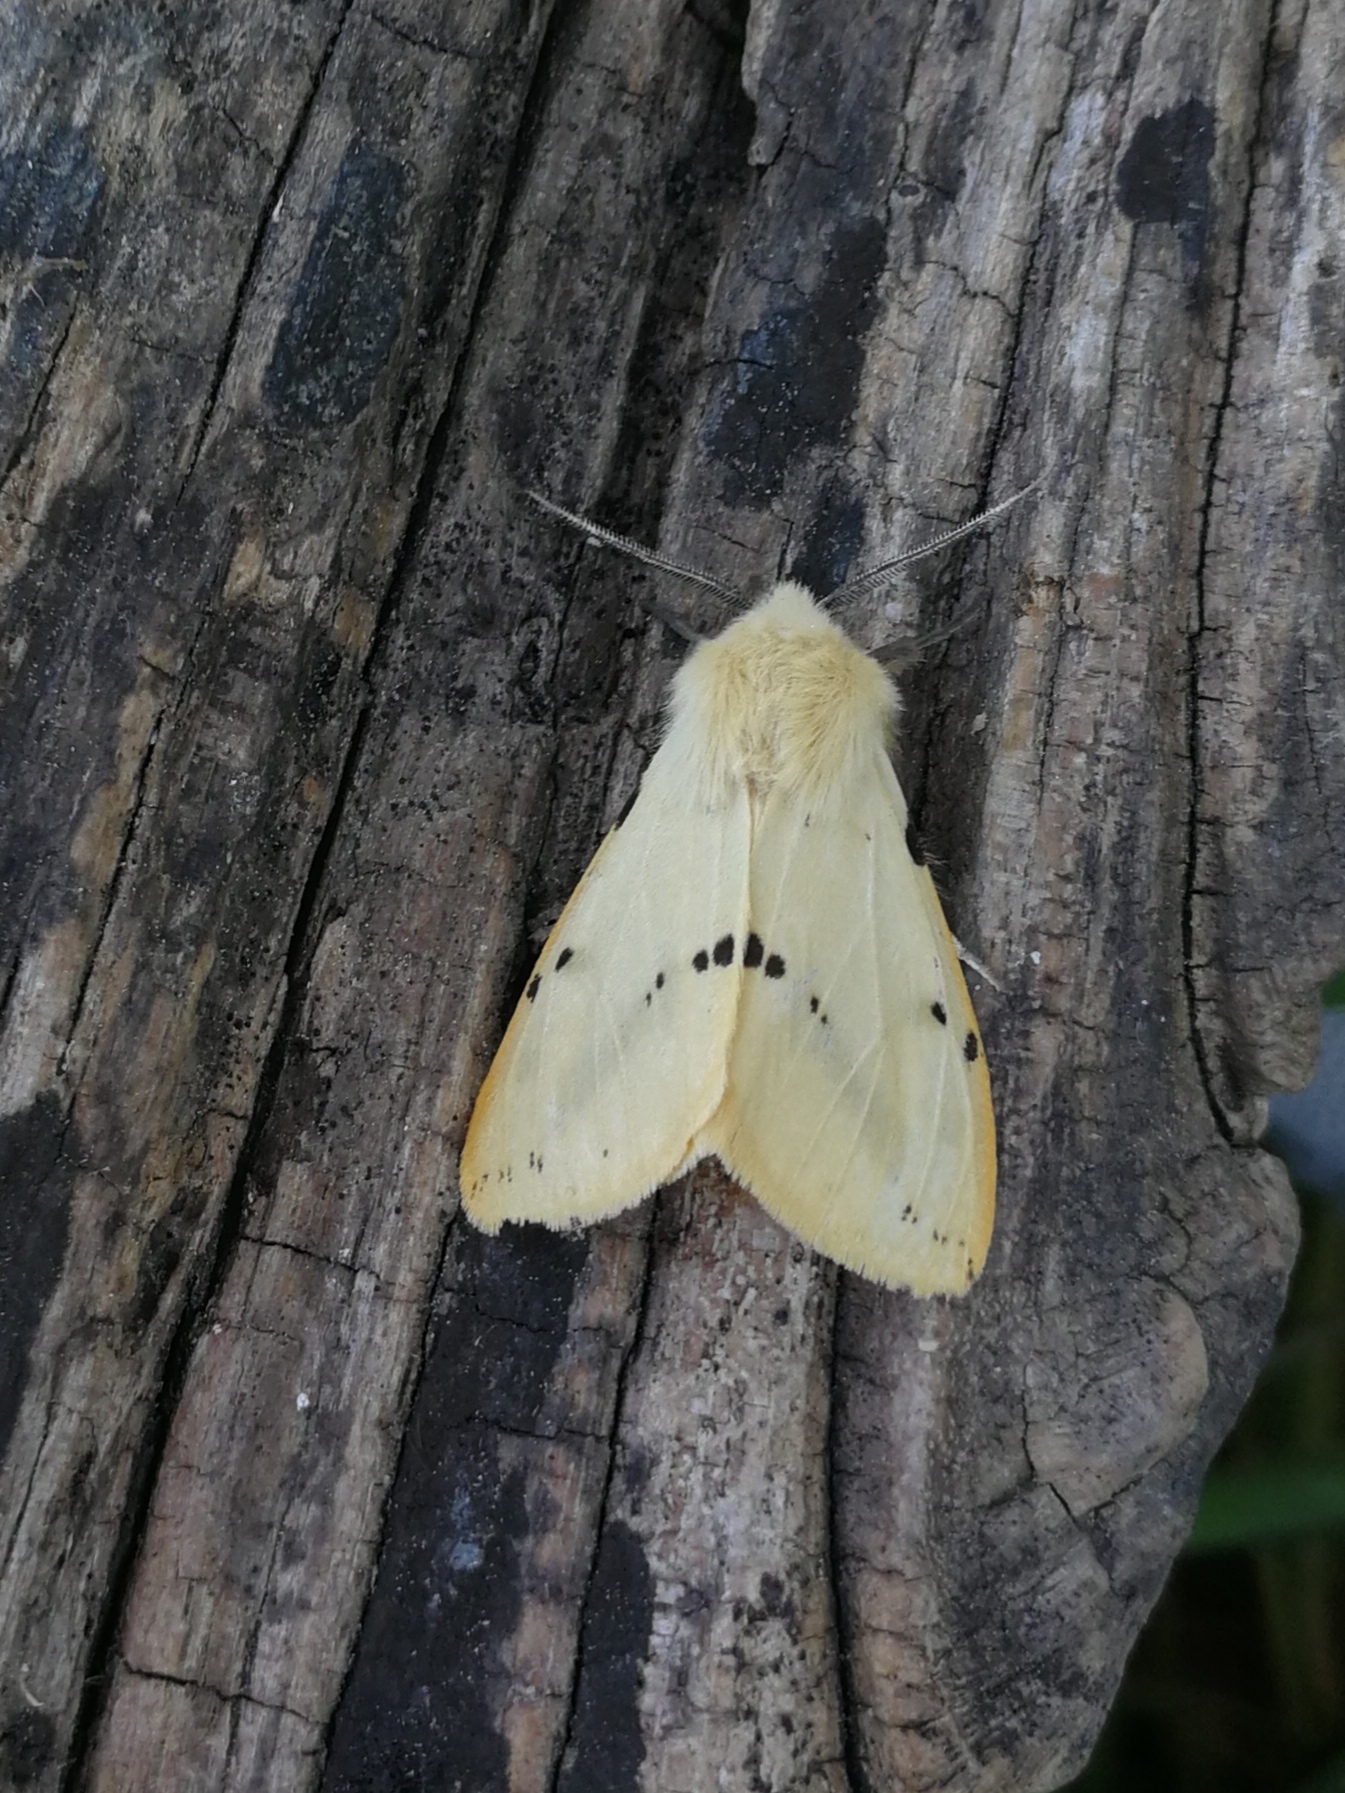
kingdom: Animalia
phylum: Arthropoda
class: Insecta
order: Lepidoptera
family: Erebidae
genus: Spilarctia
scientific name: Spilarctia lutea
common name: Buff ermine
